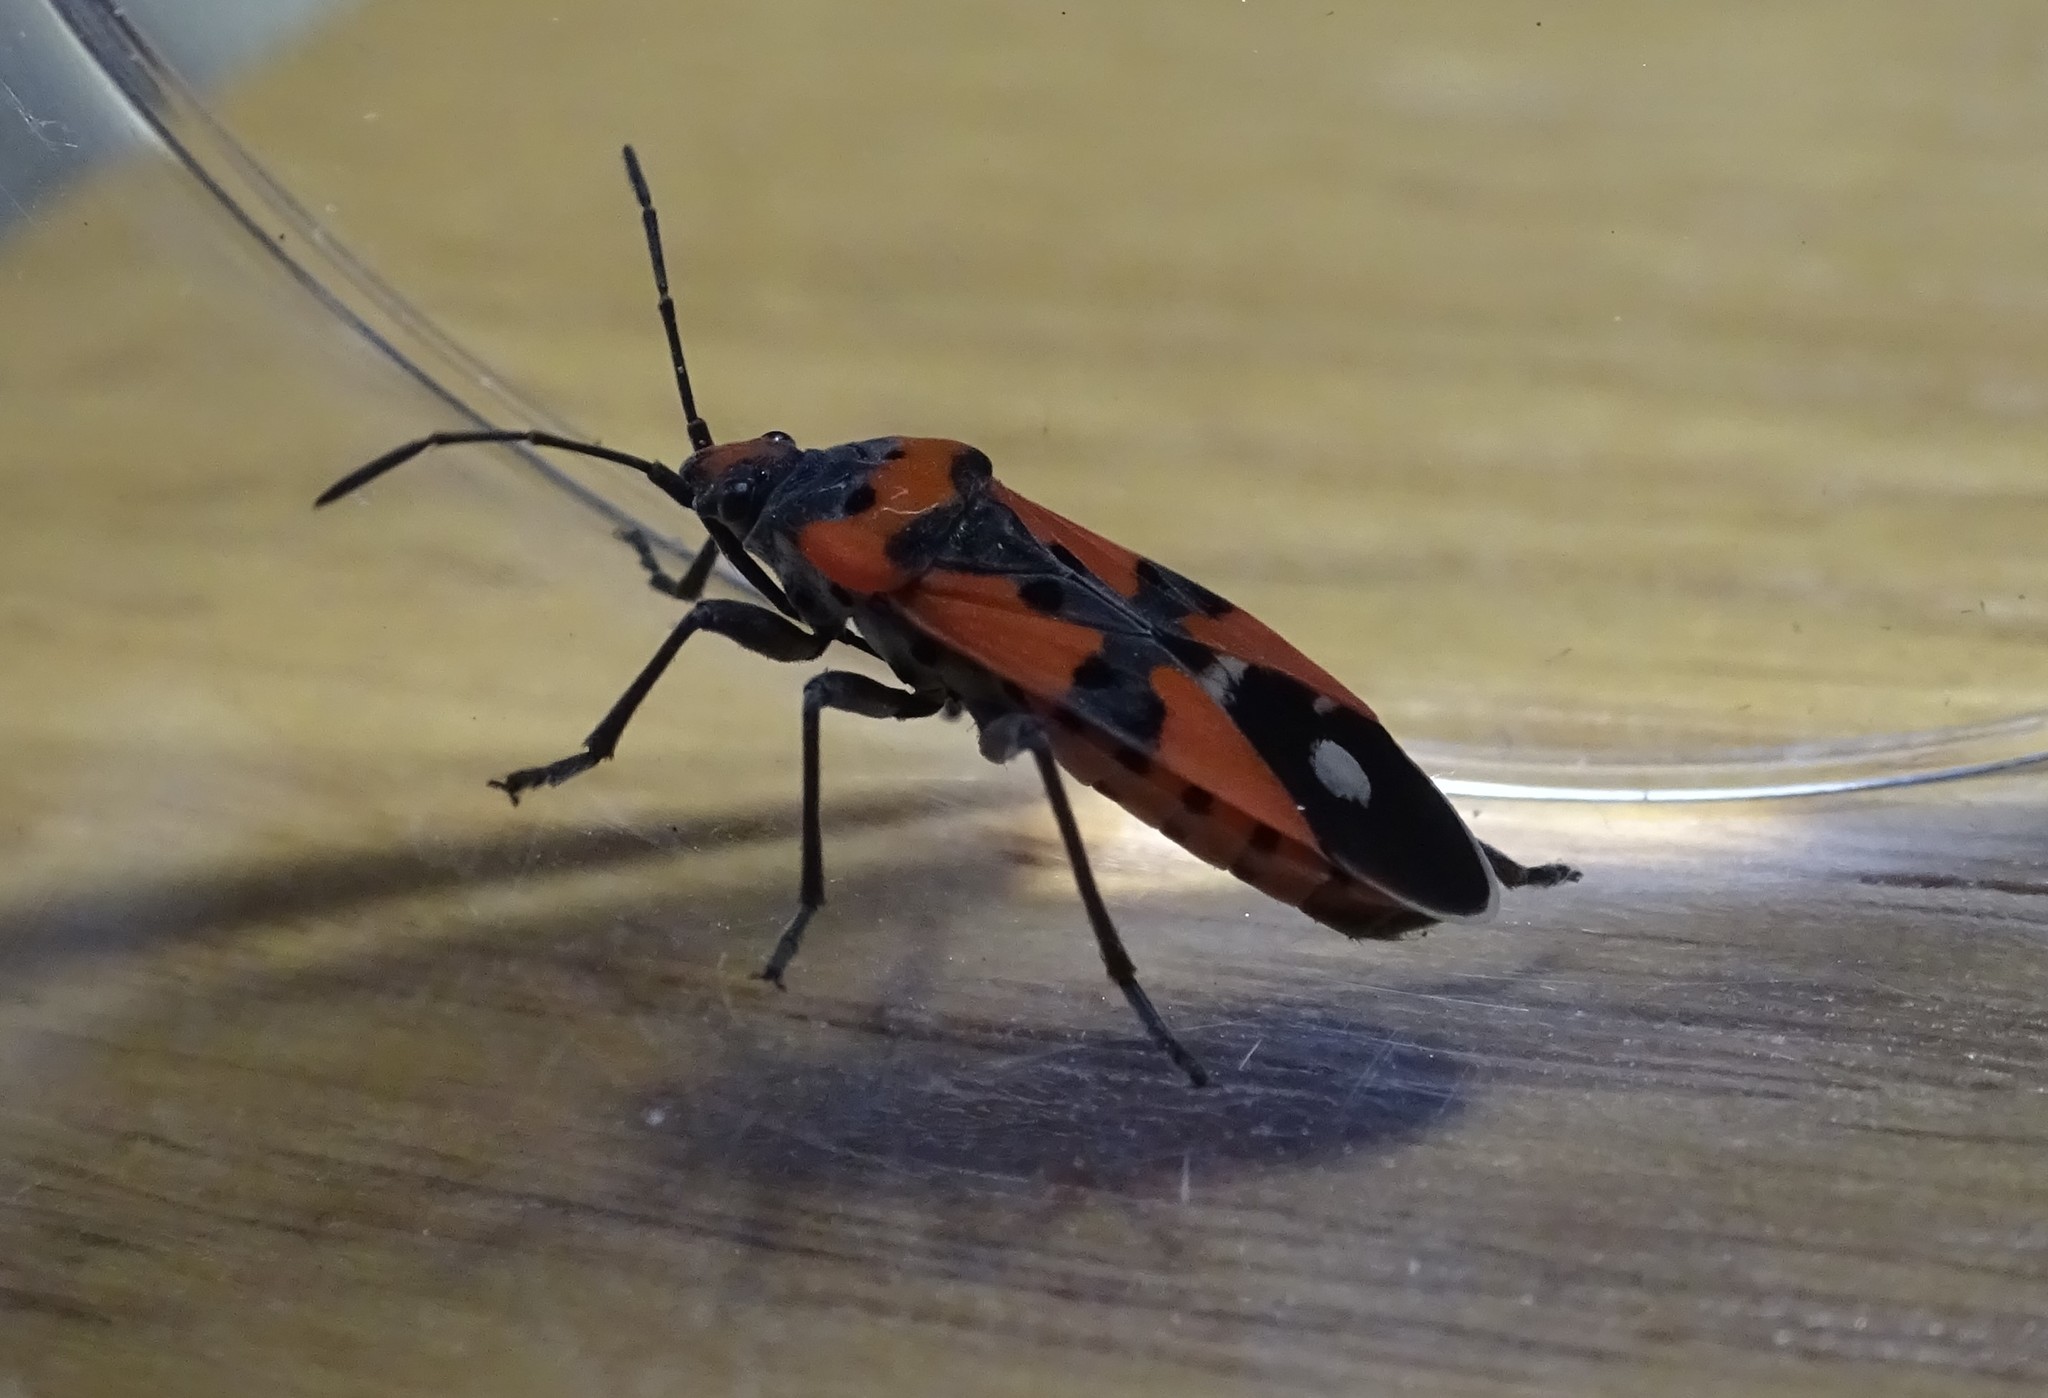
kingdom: Animalia
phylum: Arthropoda
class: Insecta
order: Hemiptera
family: Lygaeidae
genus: Lygaeus
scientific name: Lygaeus equestris
